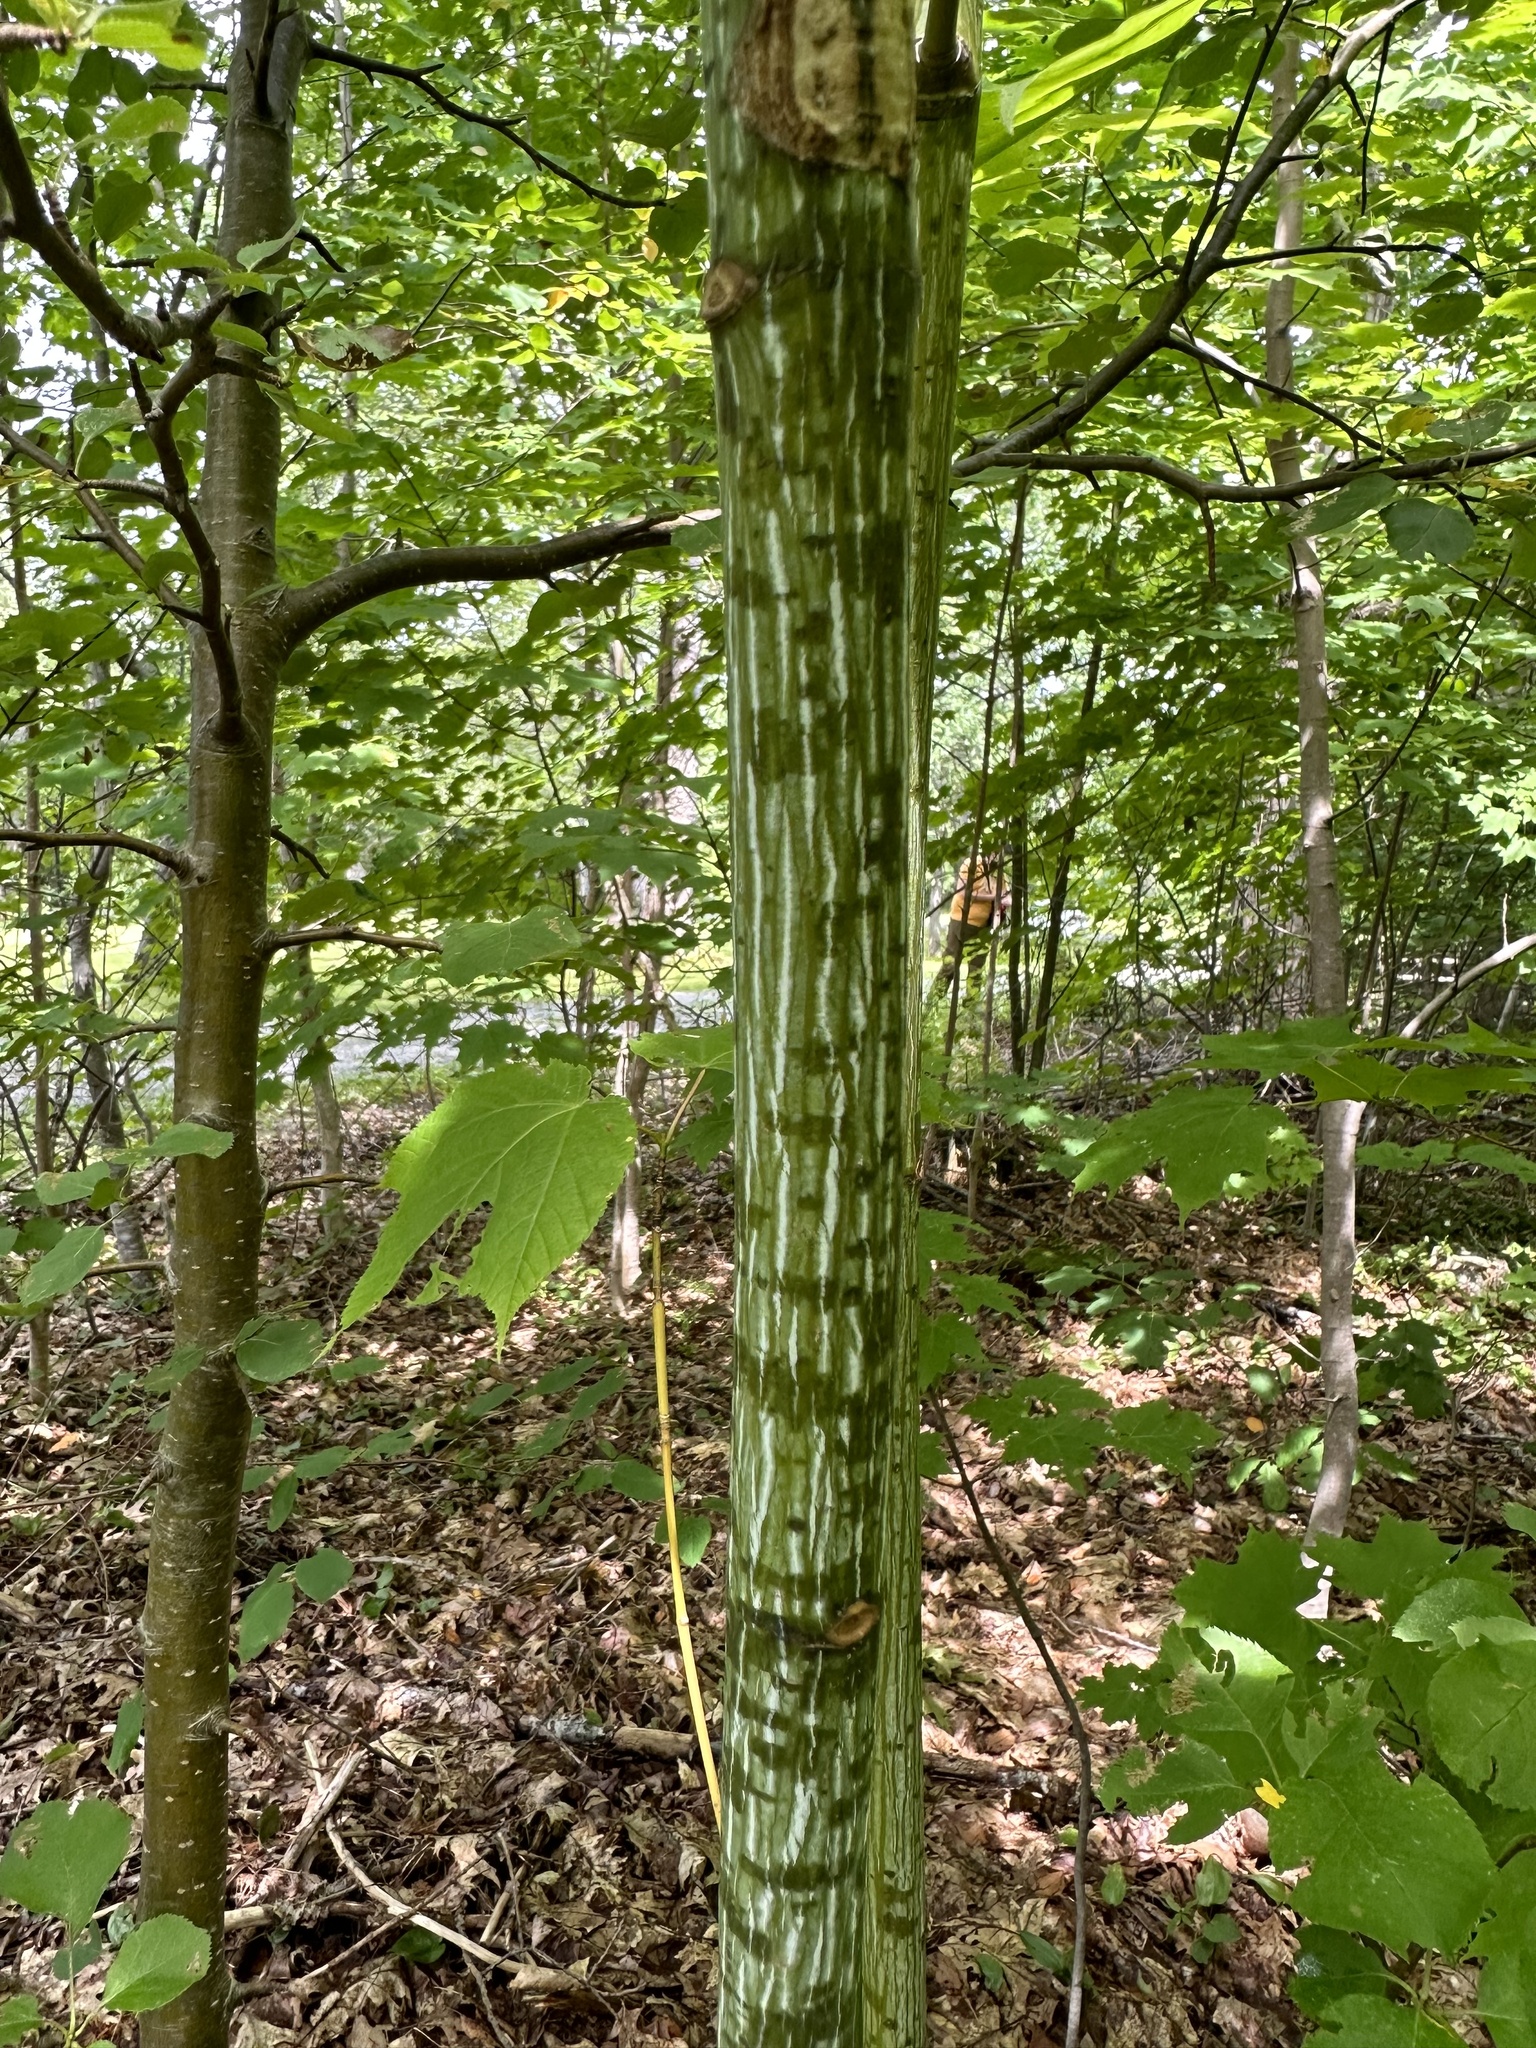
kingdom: Plantae
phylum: Tracheophyta
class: Magnoliopsida
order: Sapindales
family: Sapindaceae
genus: Acer
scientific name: Acer pensylvanicum
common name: Moosewood
